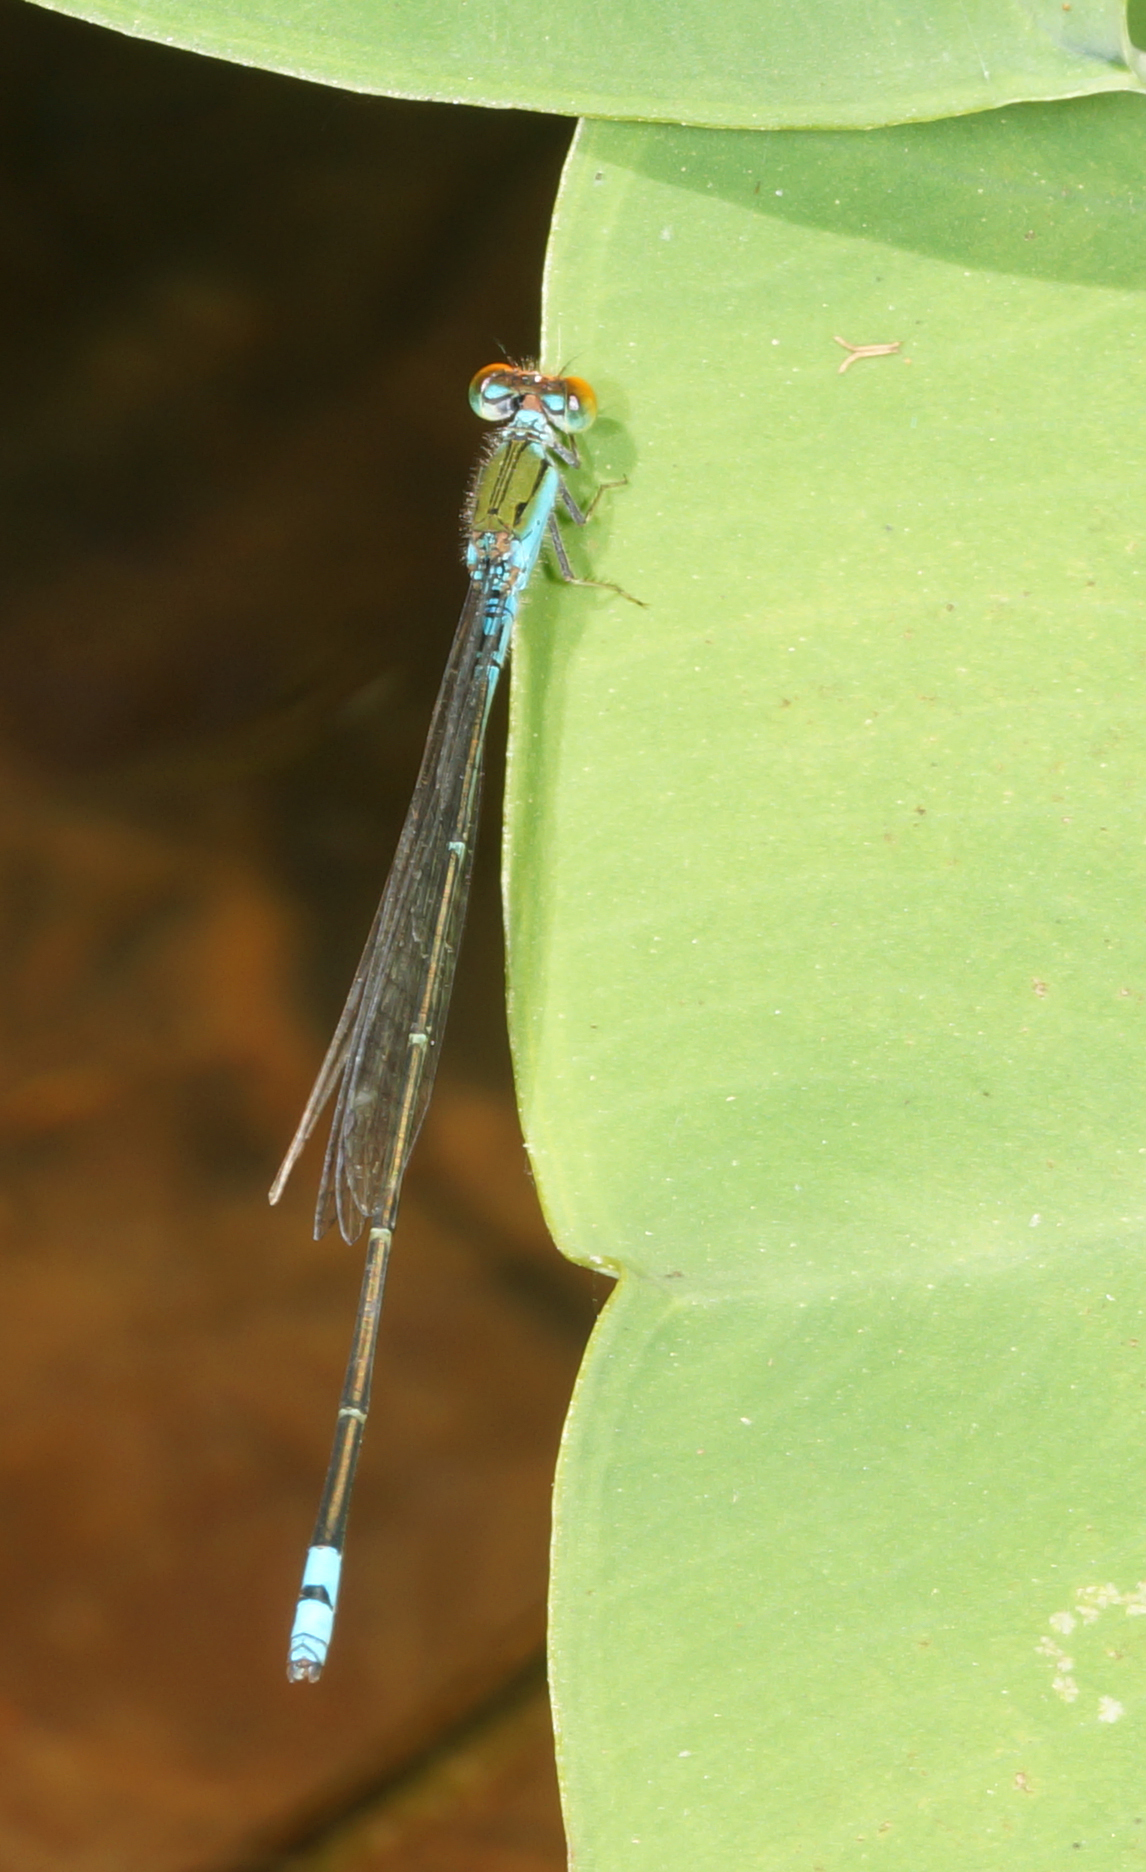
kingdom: Animalia
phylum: Arthropoda
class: Insecta
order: Odonata
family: Coenagrionidae
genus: Pseudagrion
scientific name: Pseudagrion rubriceps
